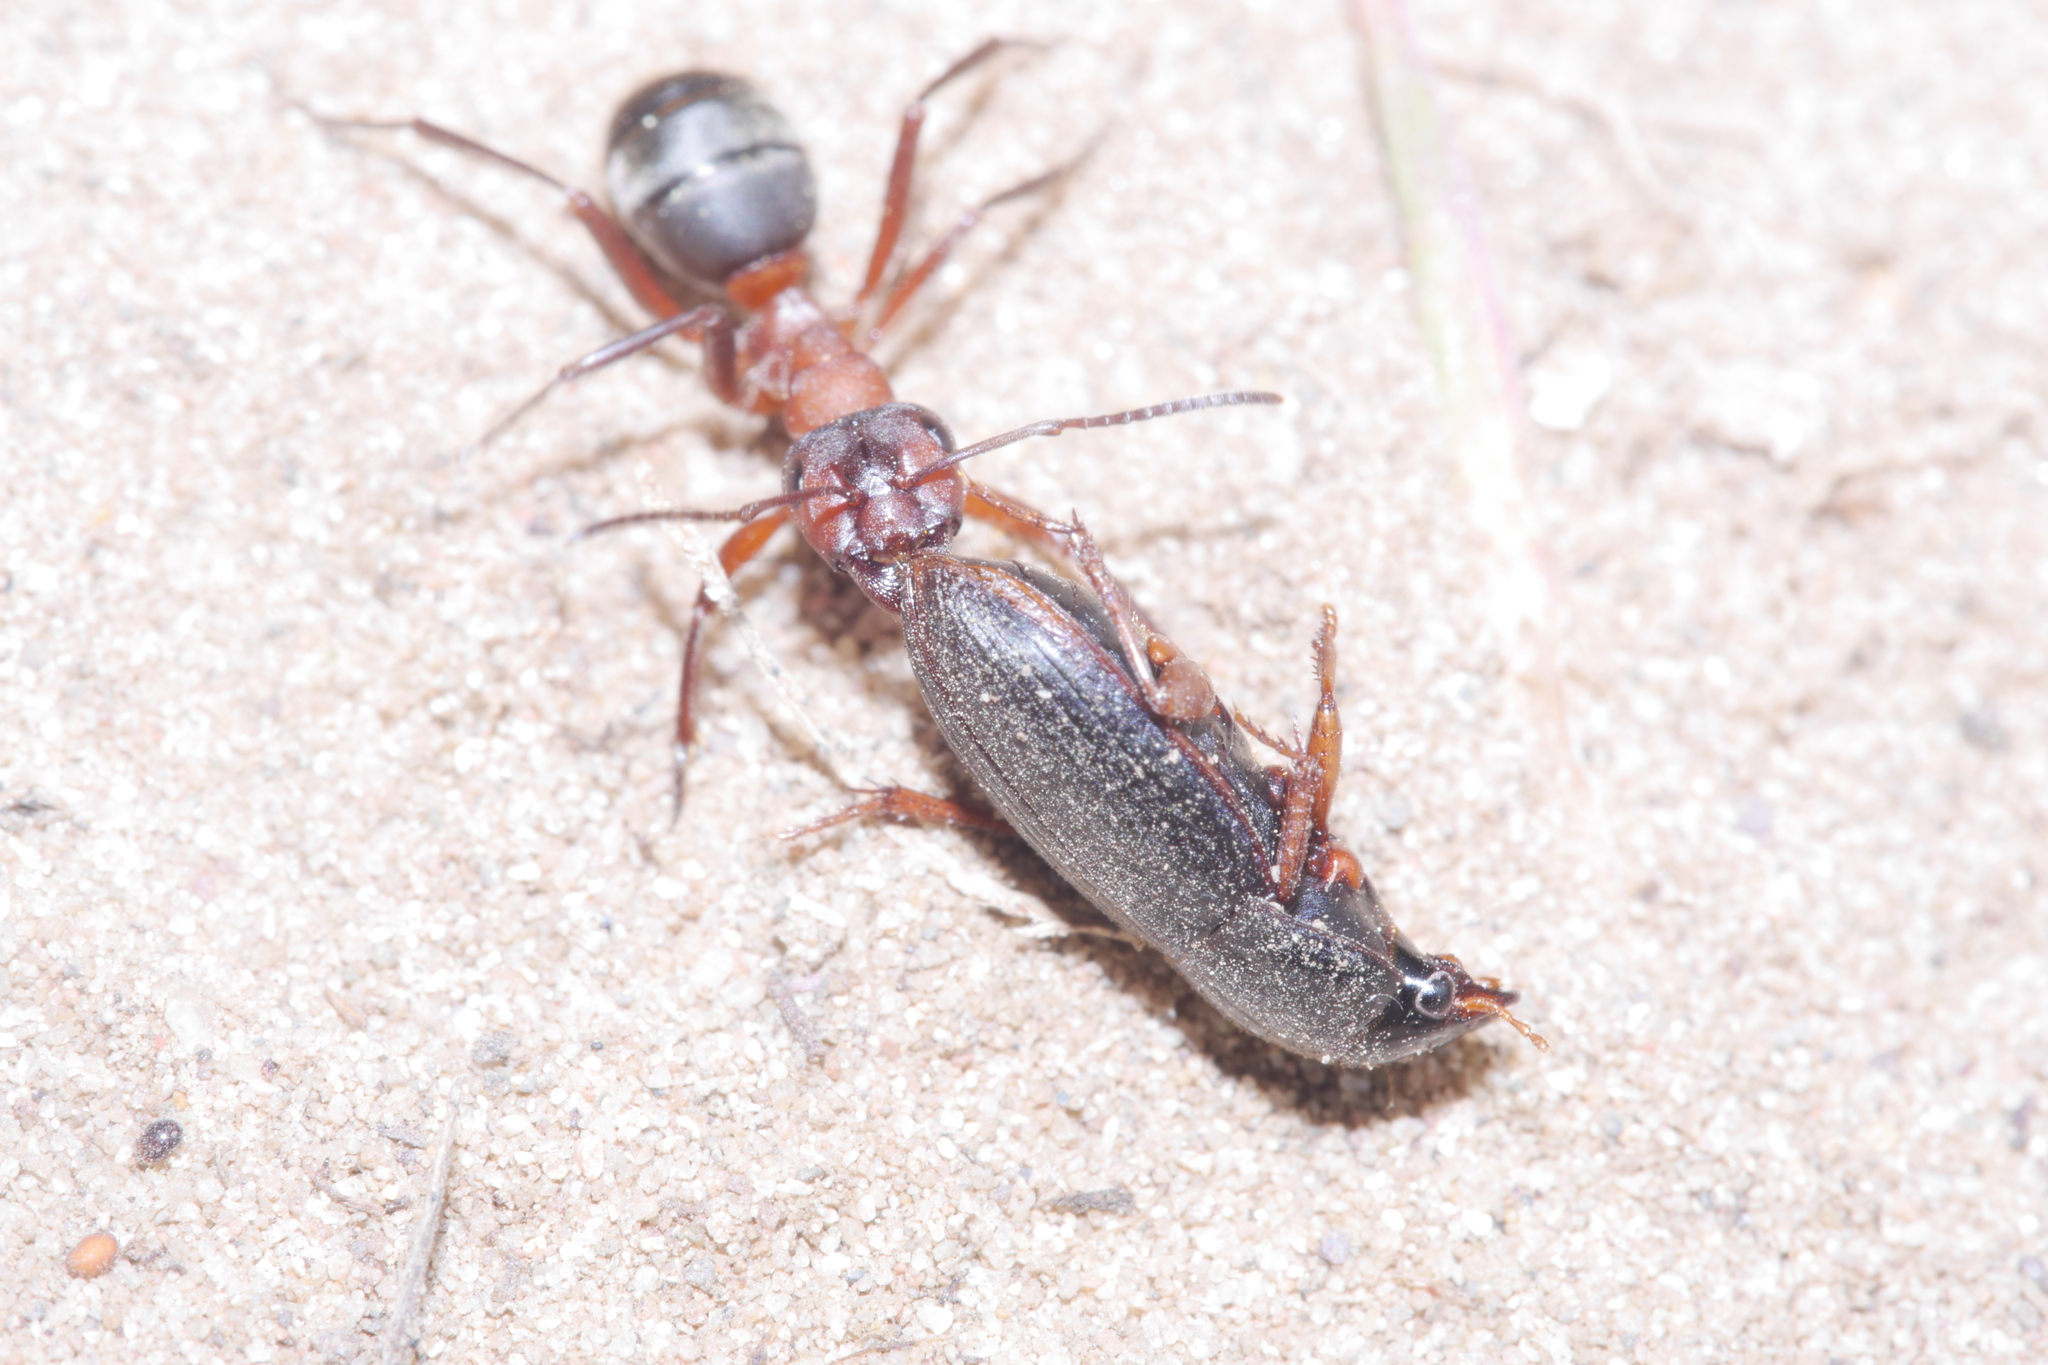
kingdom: Animalia
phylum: Arthropoda
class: Insecta
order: Hymenoptera
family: Formicidae
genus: Formica
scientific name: Formica sanguinea
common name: Blood-red ant
